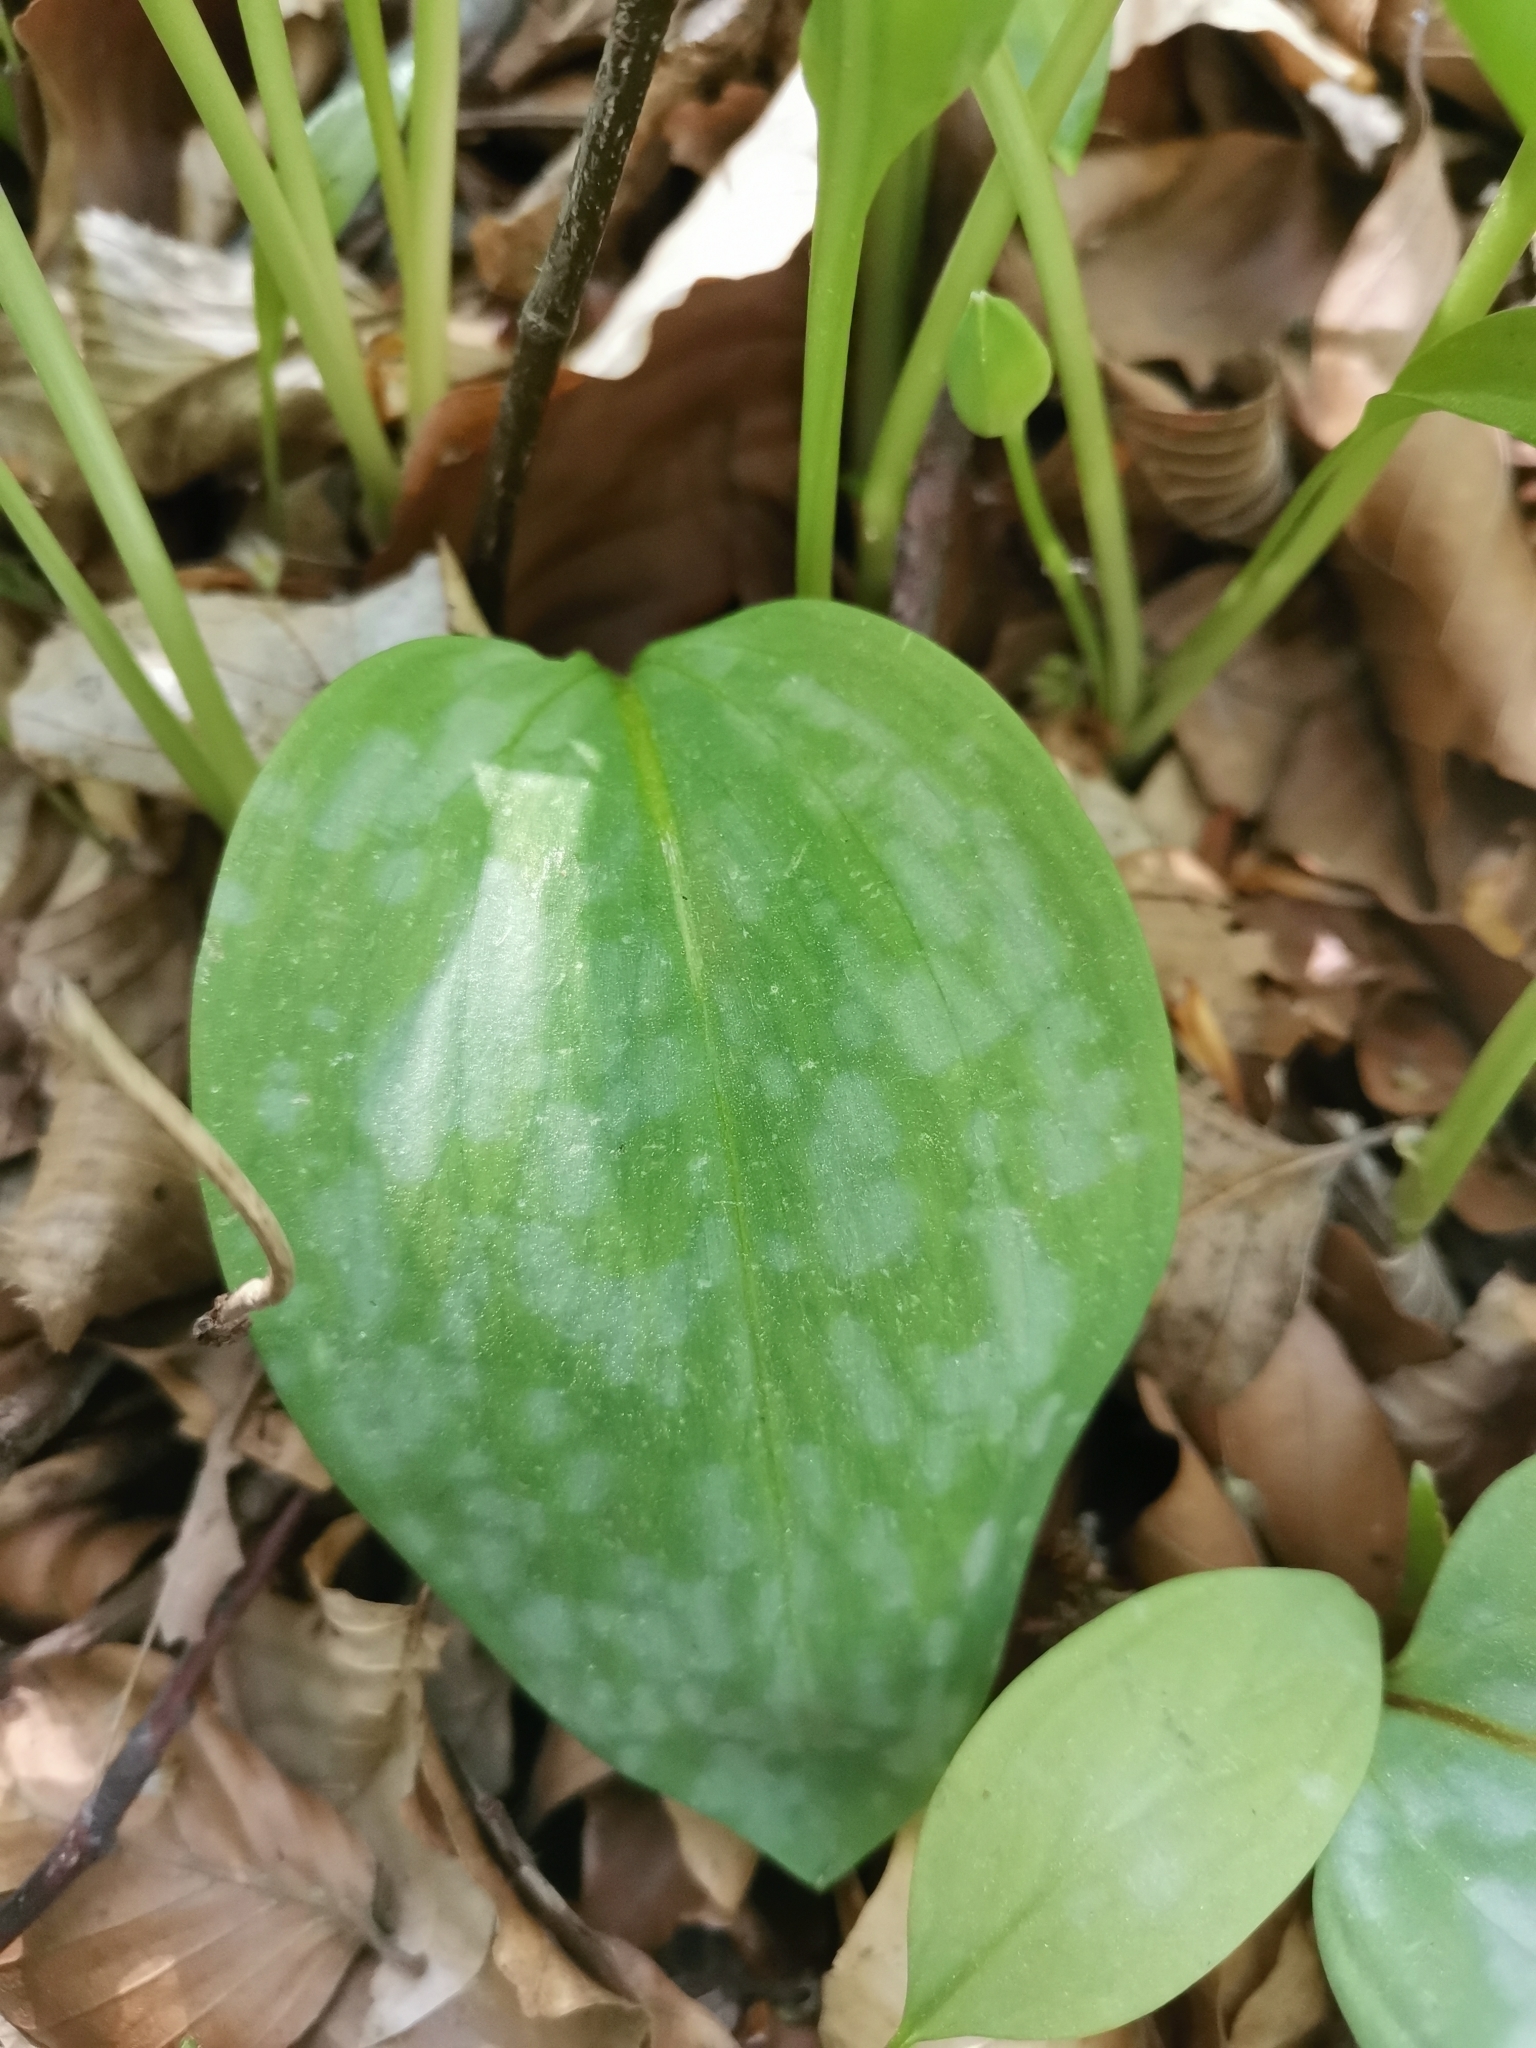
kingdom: Plantae
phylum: Tracheophyta
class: Liliopsida
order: Liliales
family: Liliaceae
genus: Erythronium
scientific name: Erythronium dens-canis
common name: Dog's-tooth-violet
